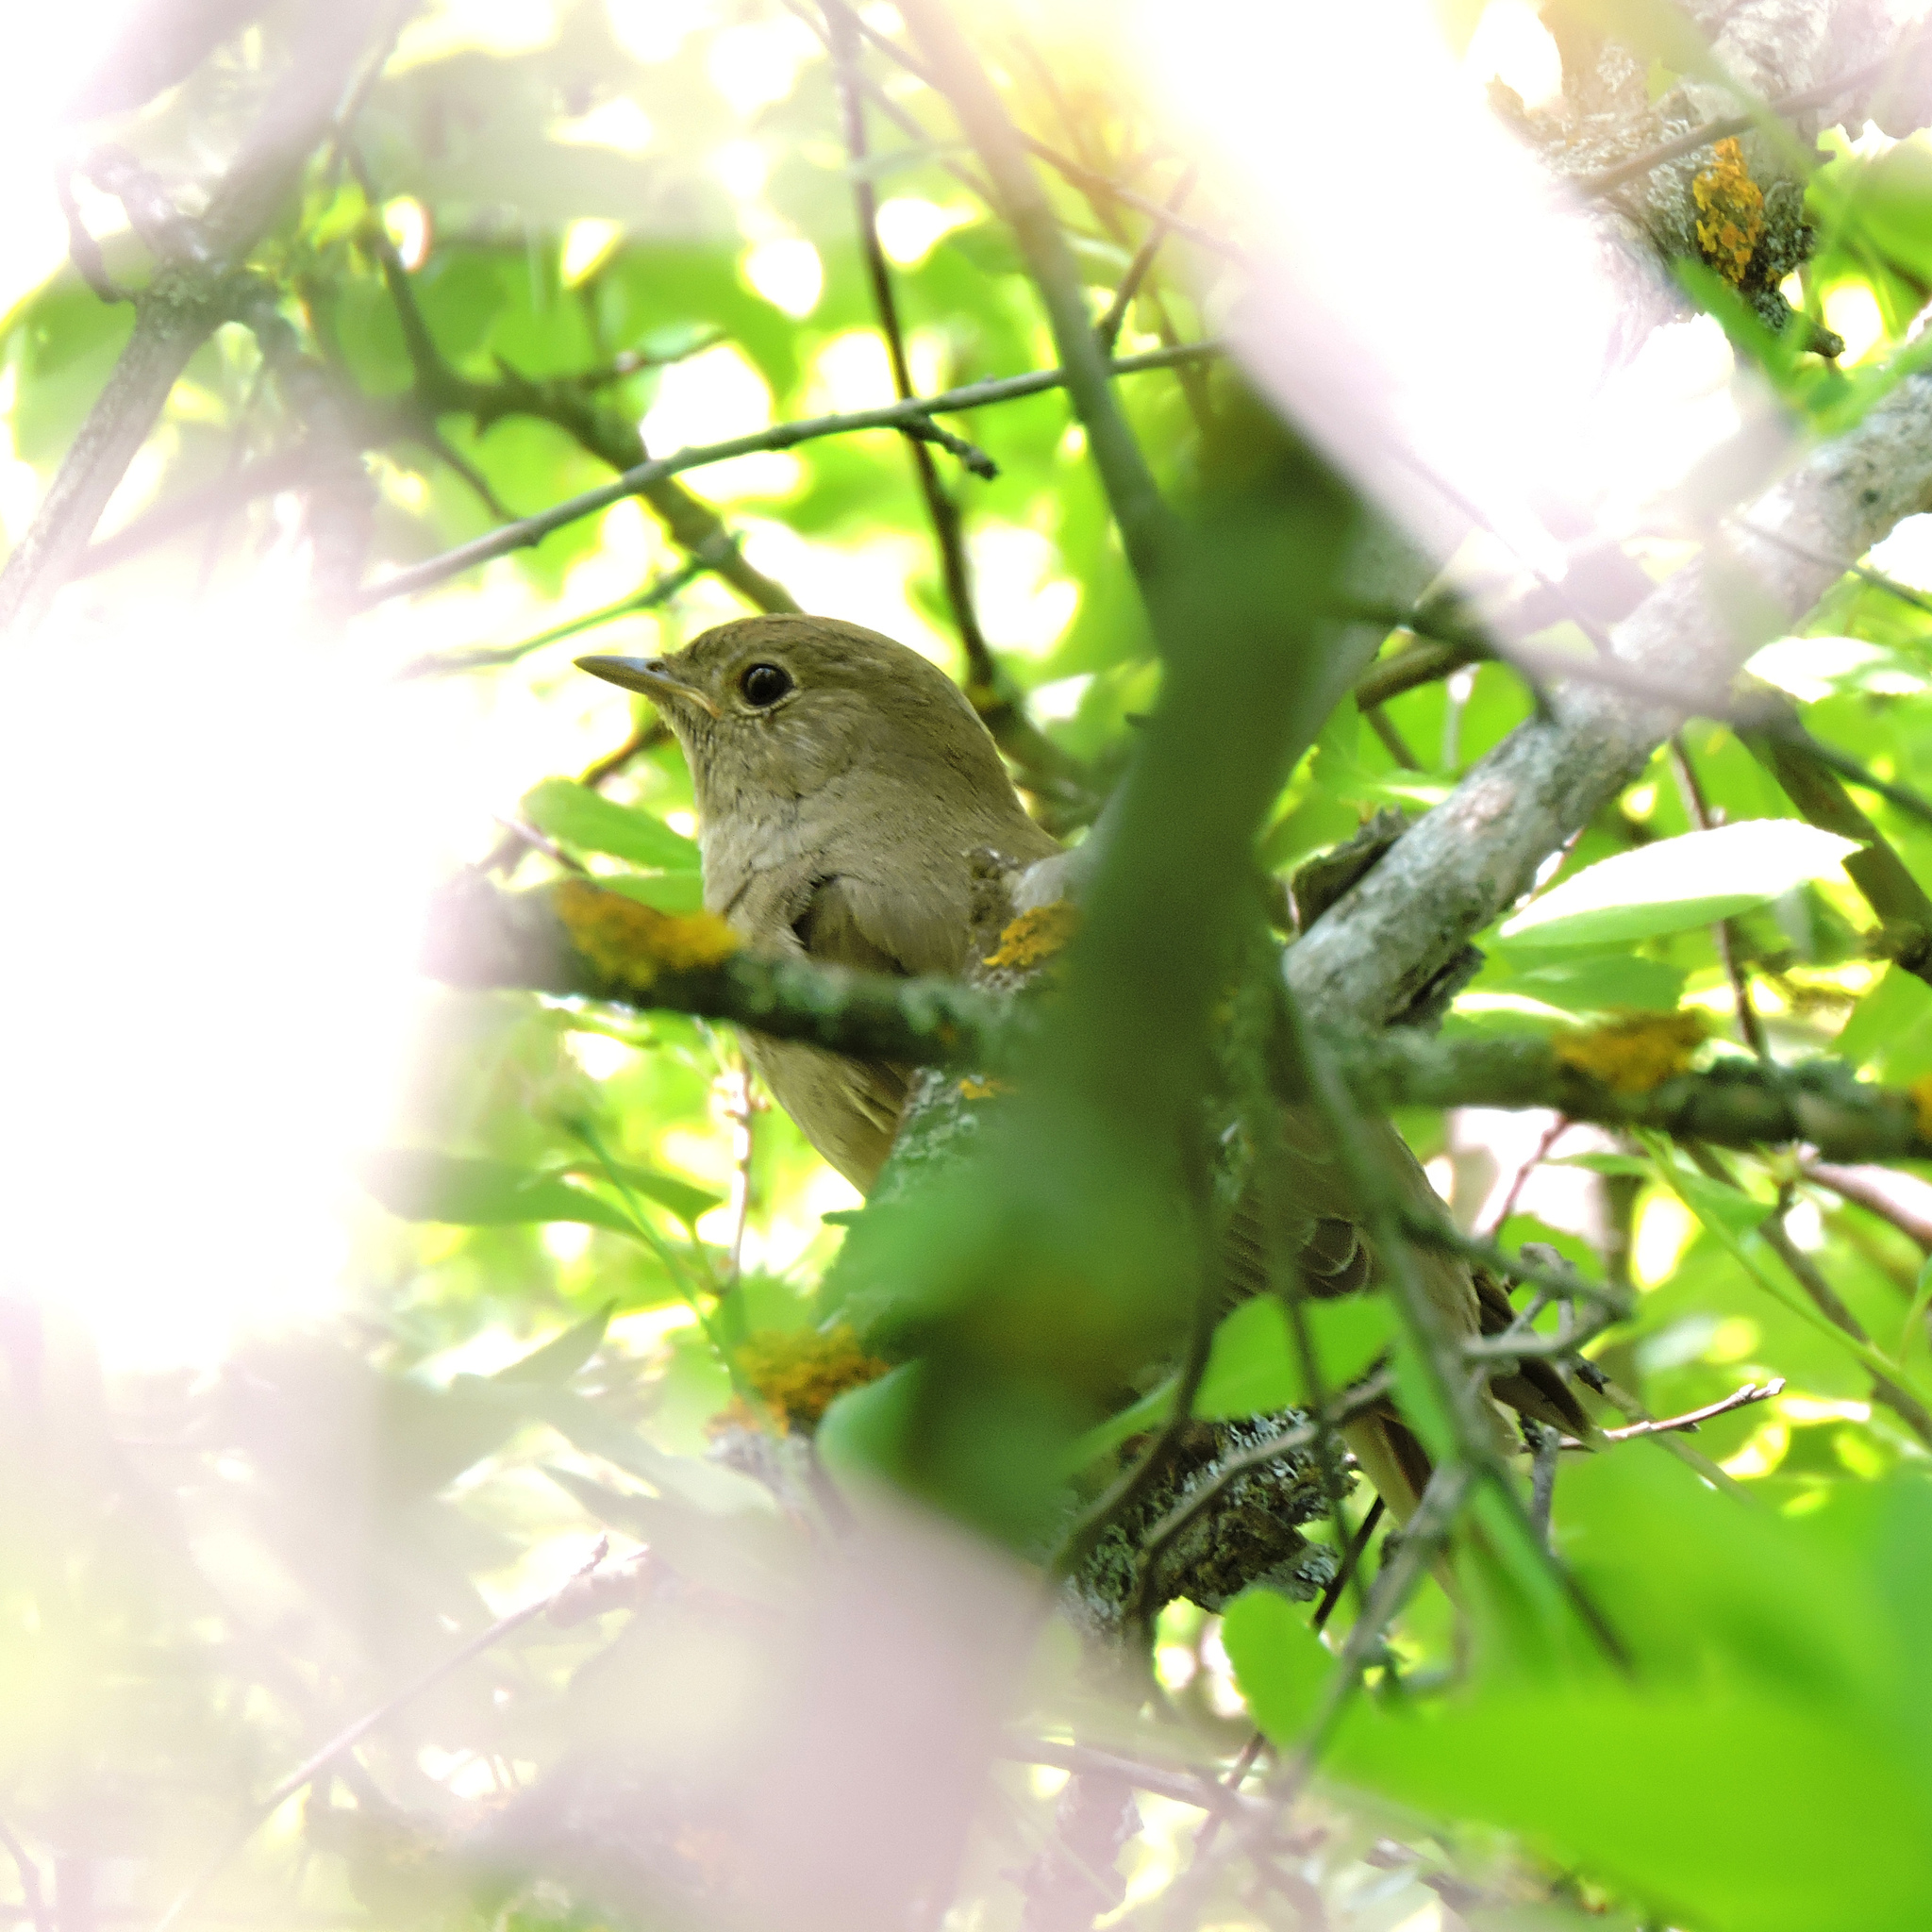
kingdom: Animalia
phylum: Chordata
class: Aves
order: Passeriformes
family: Muscicapidae
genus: Luscinia
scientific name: Luscinia luscinia
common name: Thrush nightingale
